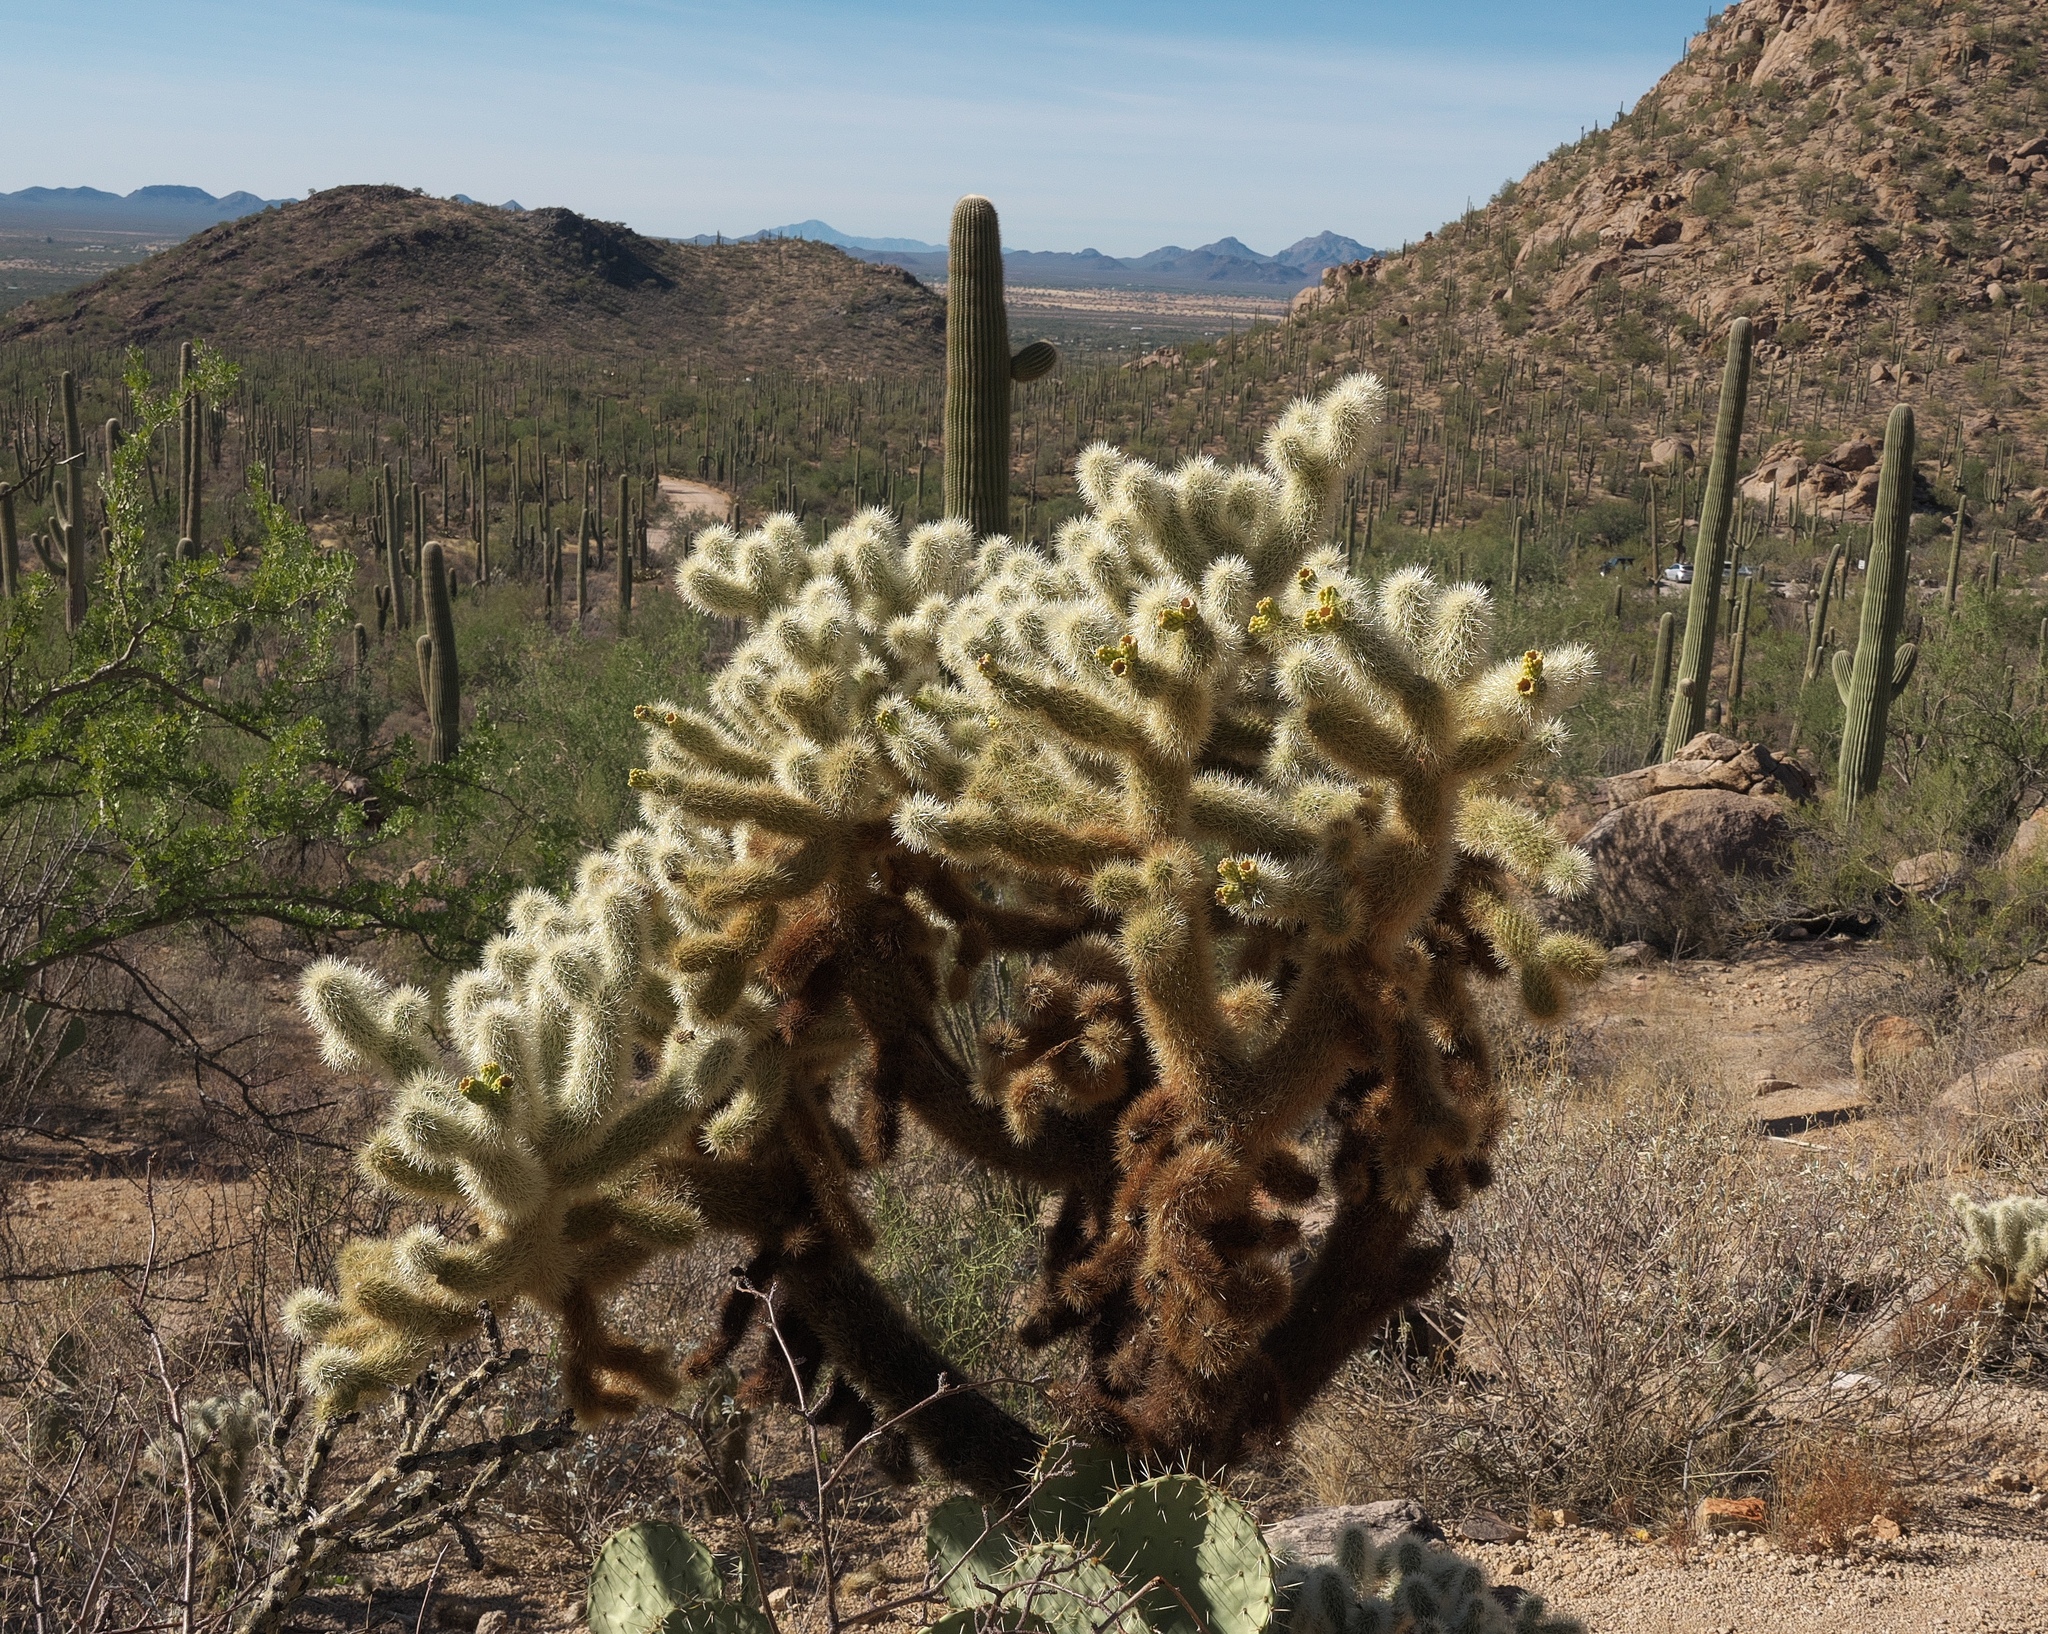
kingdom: Plantae
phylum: Tracheophyta
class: Magnoliopsida
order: Caryophyllales
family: Cactaceae
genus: Cylindropuntia
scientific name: Cylindropuntia fosbergii
